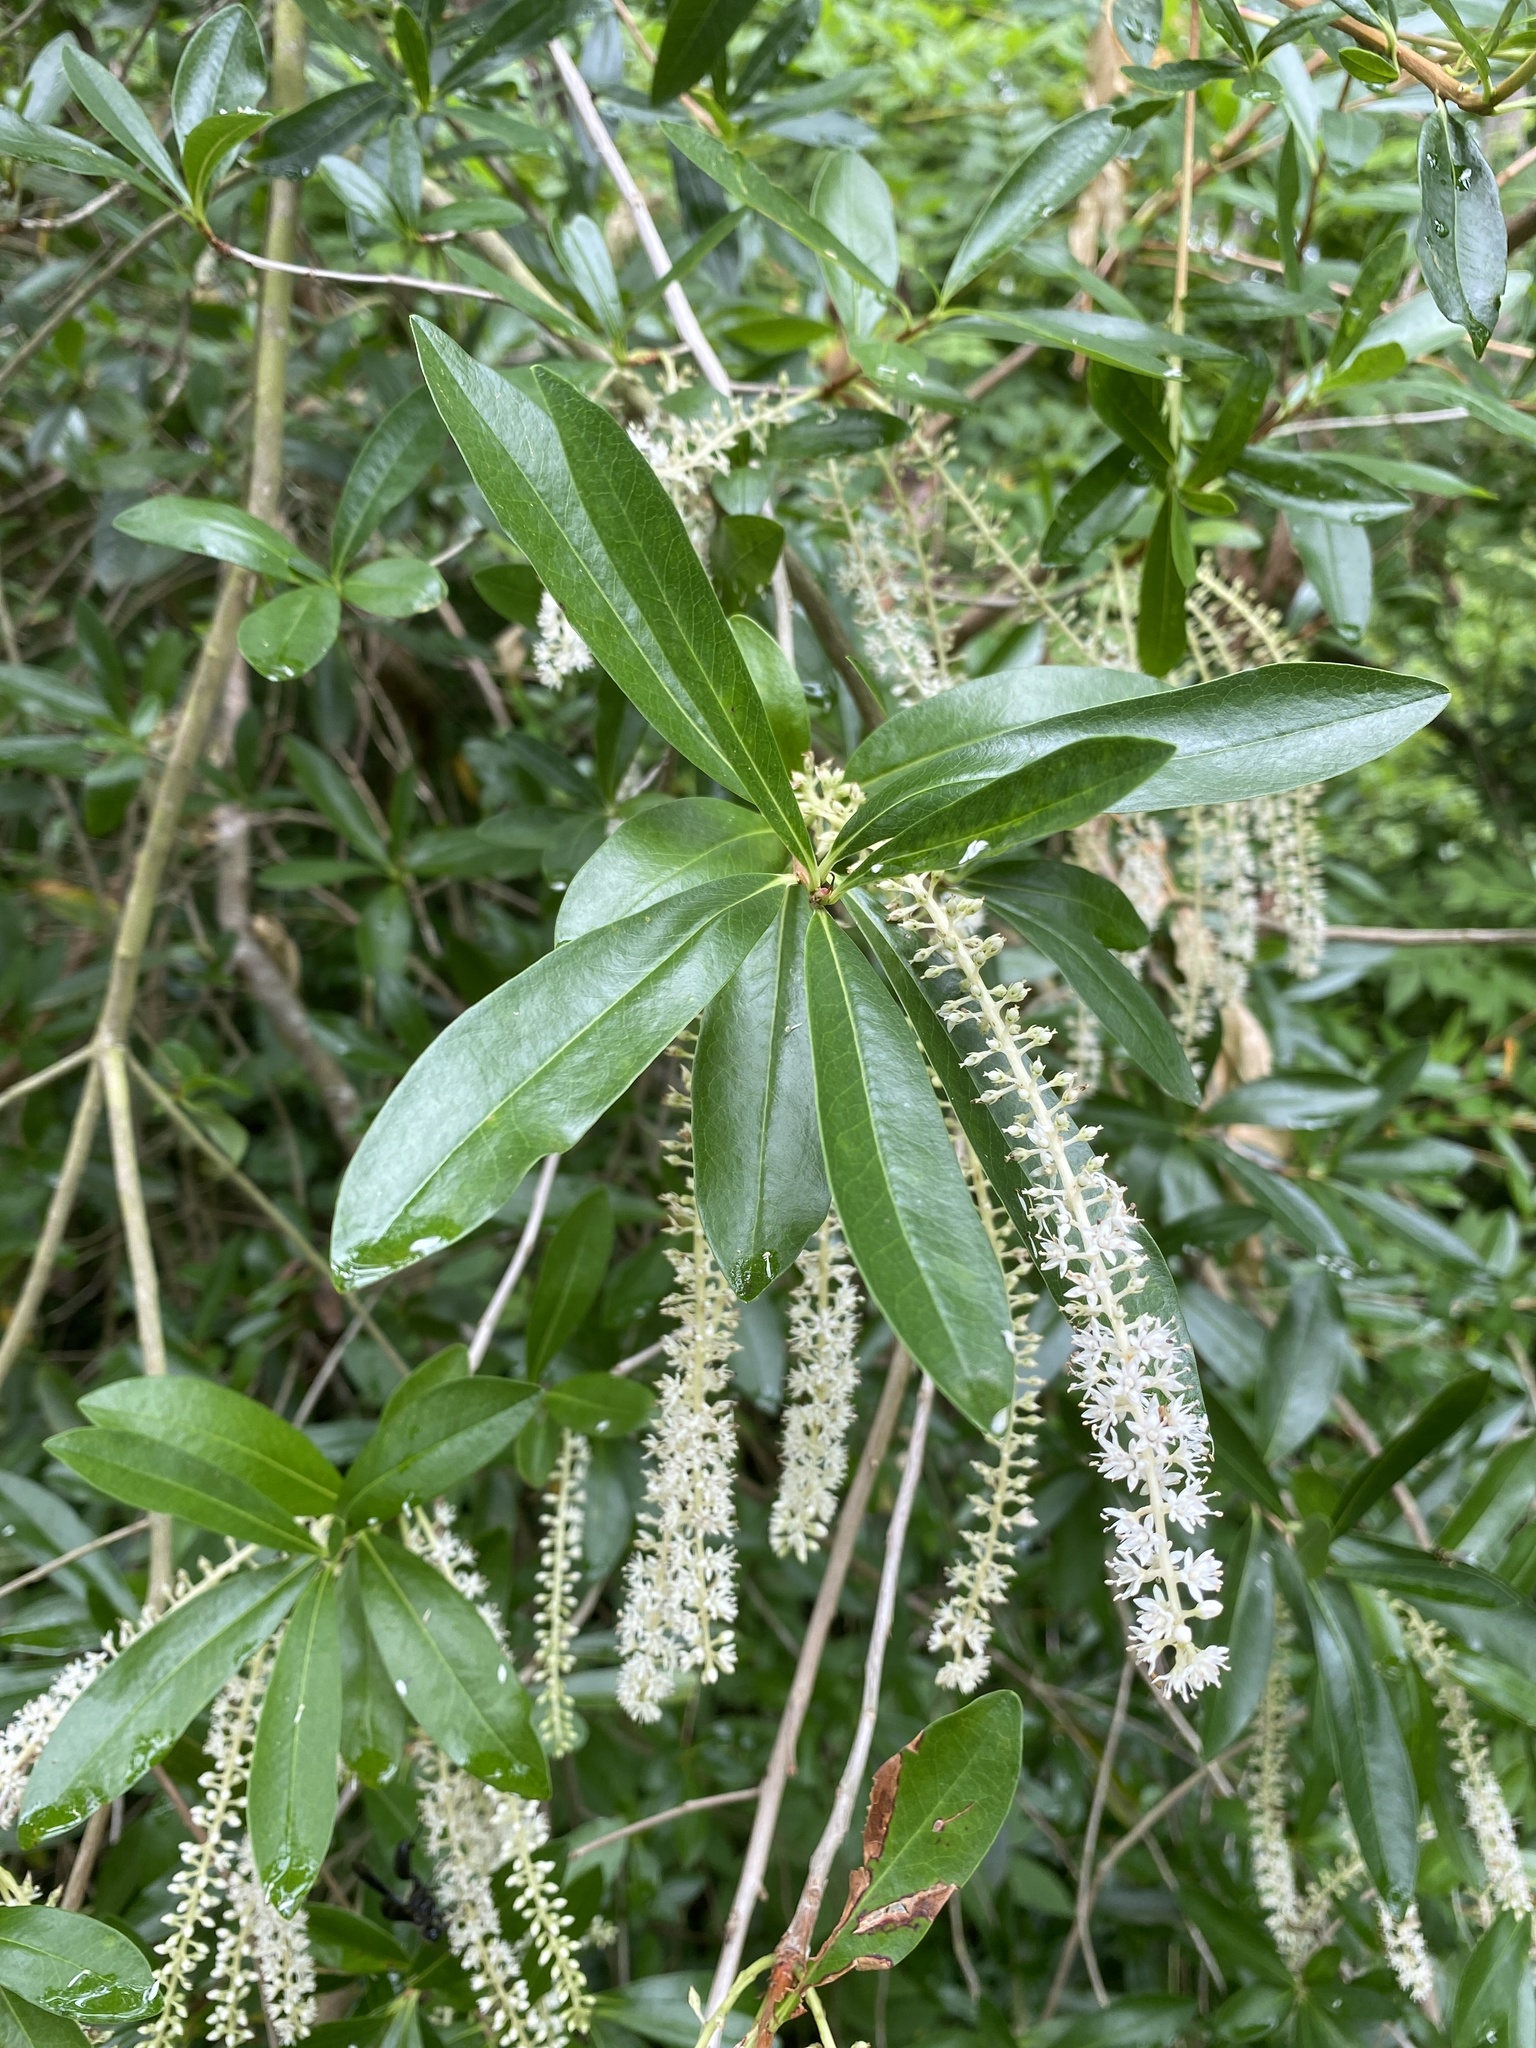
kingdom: Plantae
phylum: Tracheophyta
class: Magnoliopsida
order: Ericales
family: Cyrillaceae
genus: Cyrilla
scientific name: Cyrilla racemiflora
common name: Black titi
